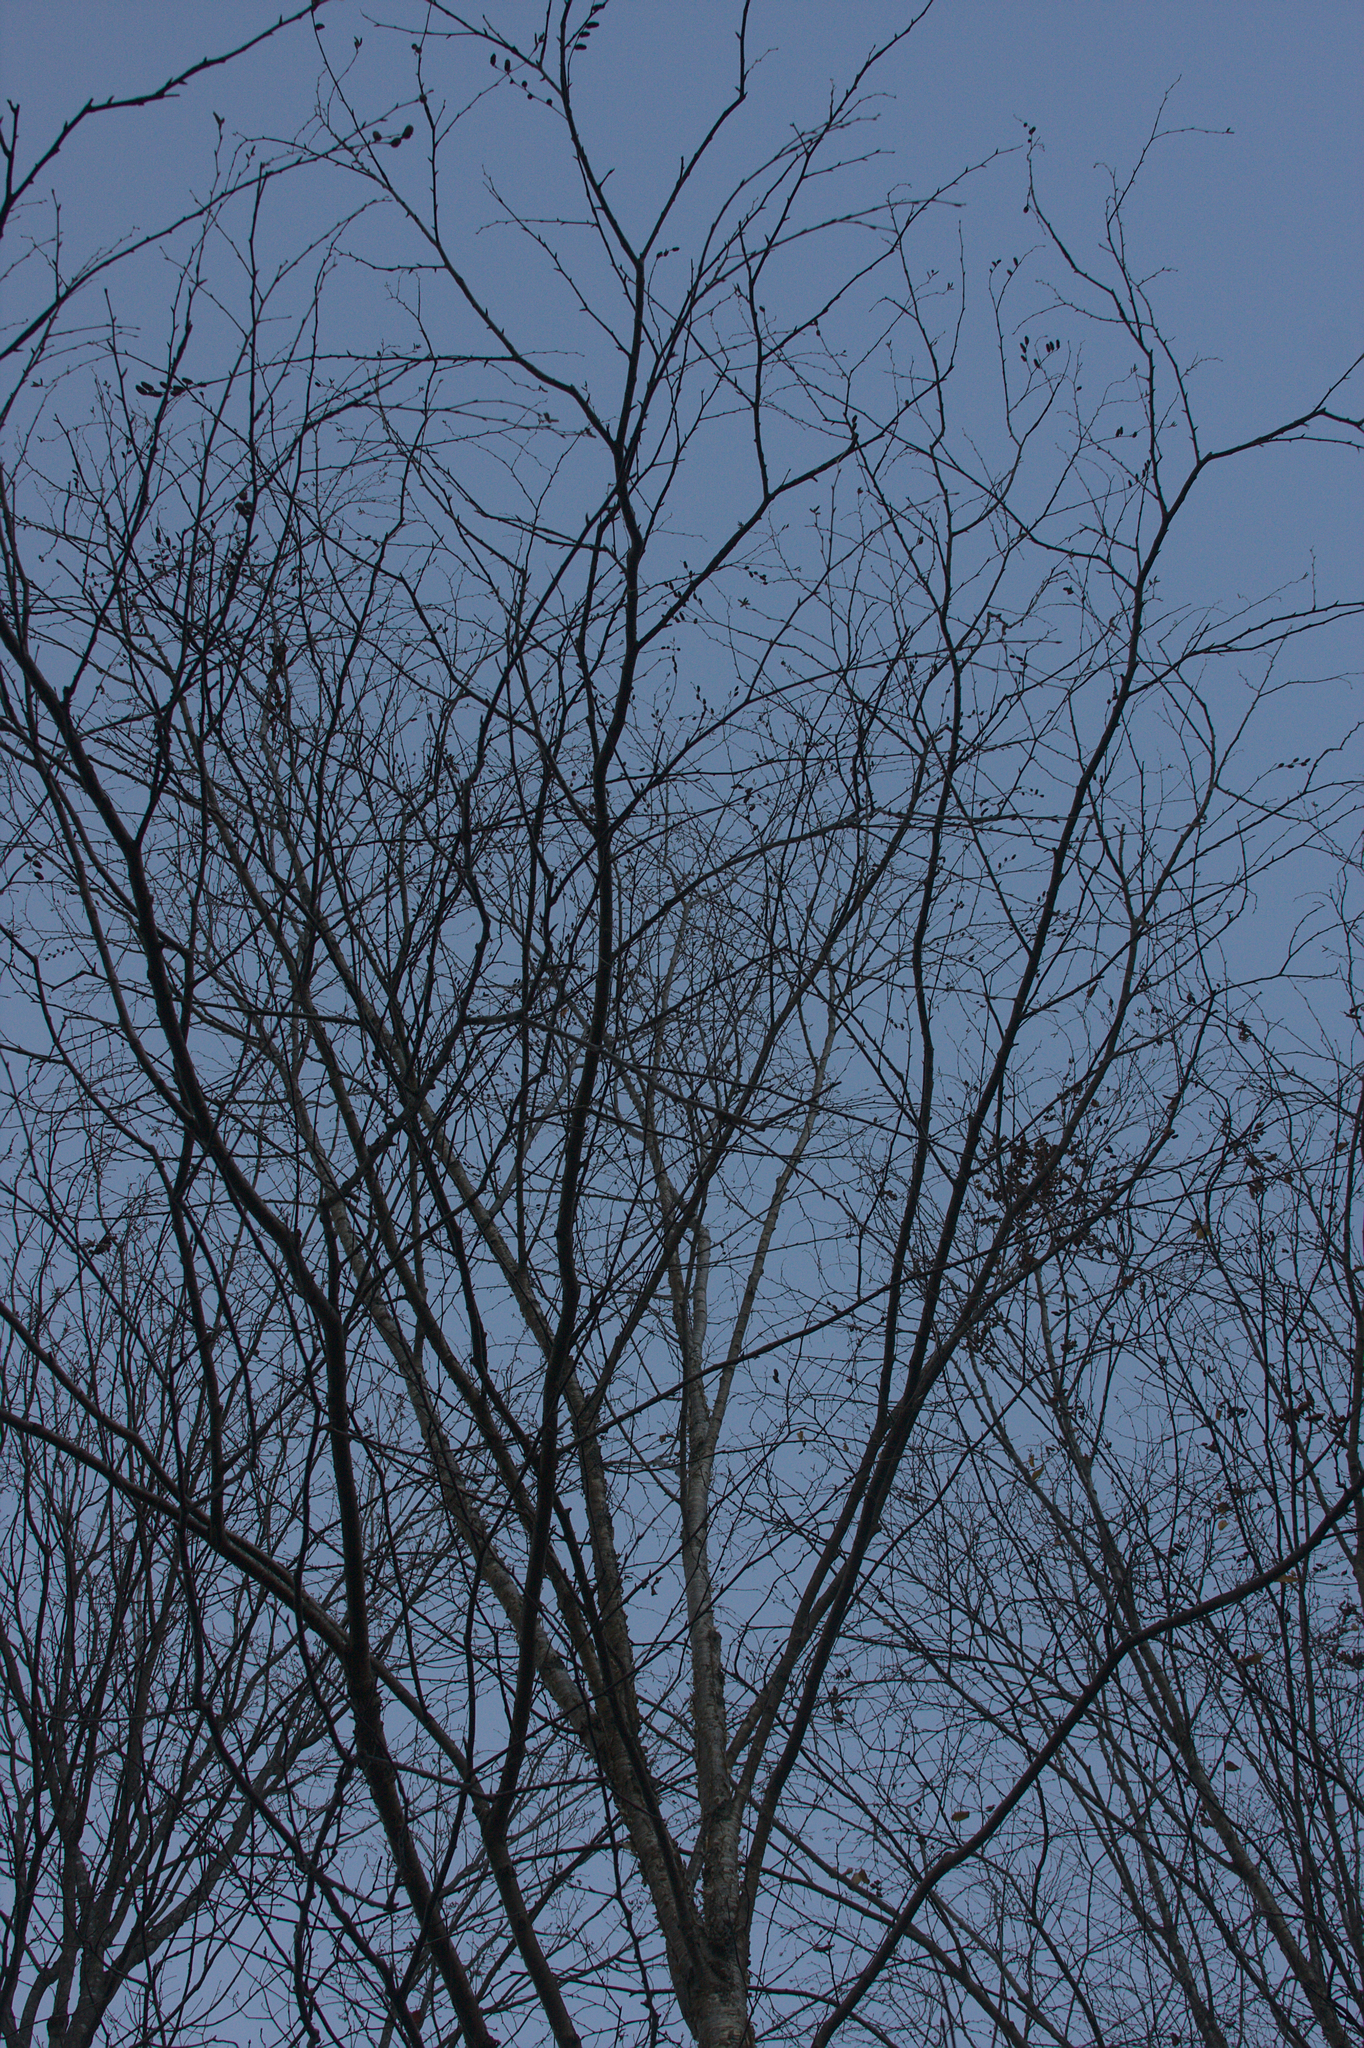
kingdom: Plantae
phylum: Tracheophyta
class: Magnoliopsida
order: Fagales
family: Betulaceae
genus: Betula
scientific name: Betula alleghaniensis
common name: Yellow birch
